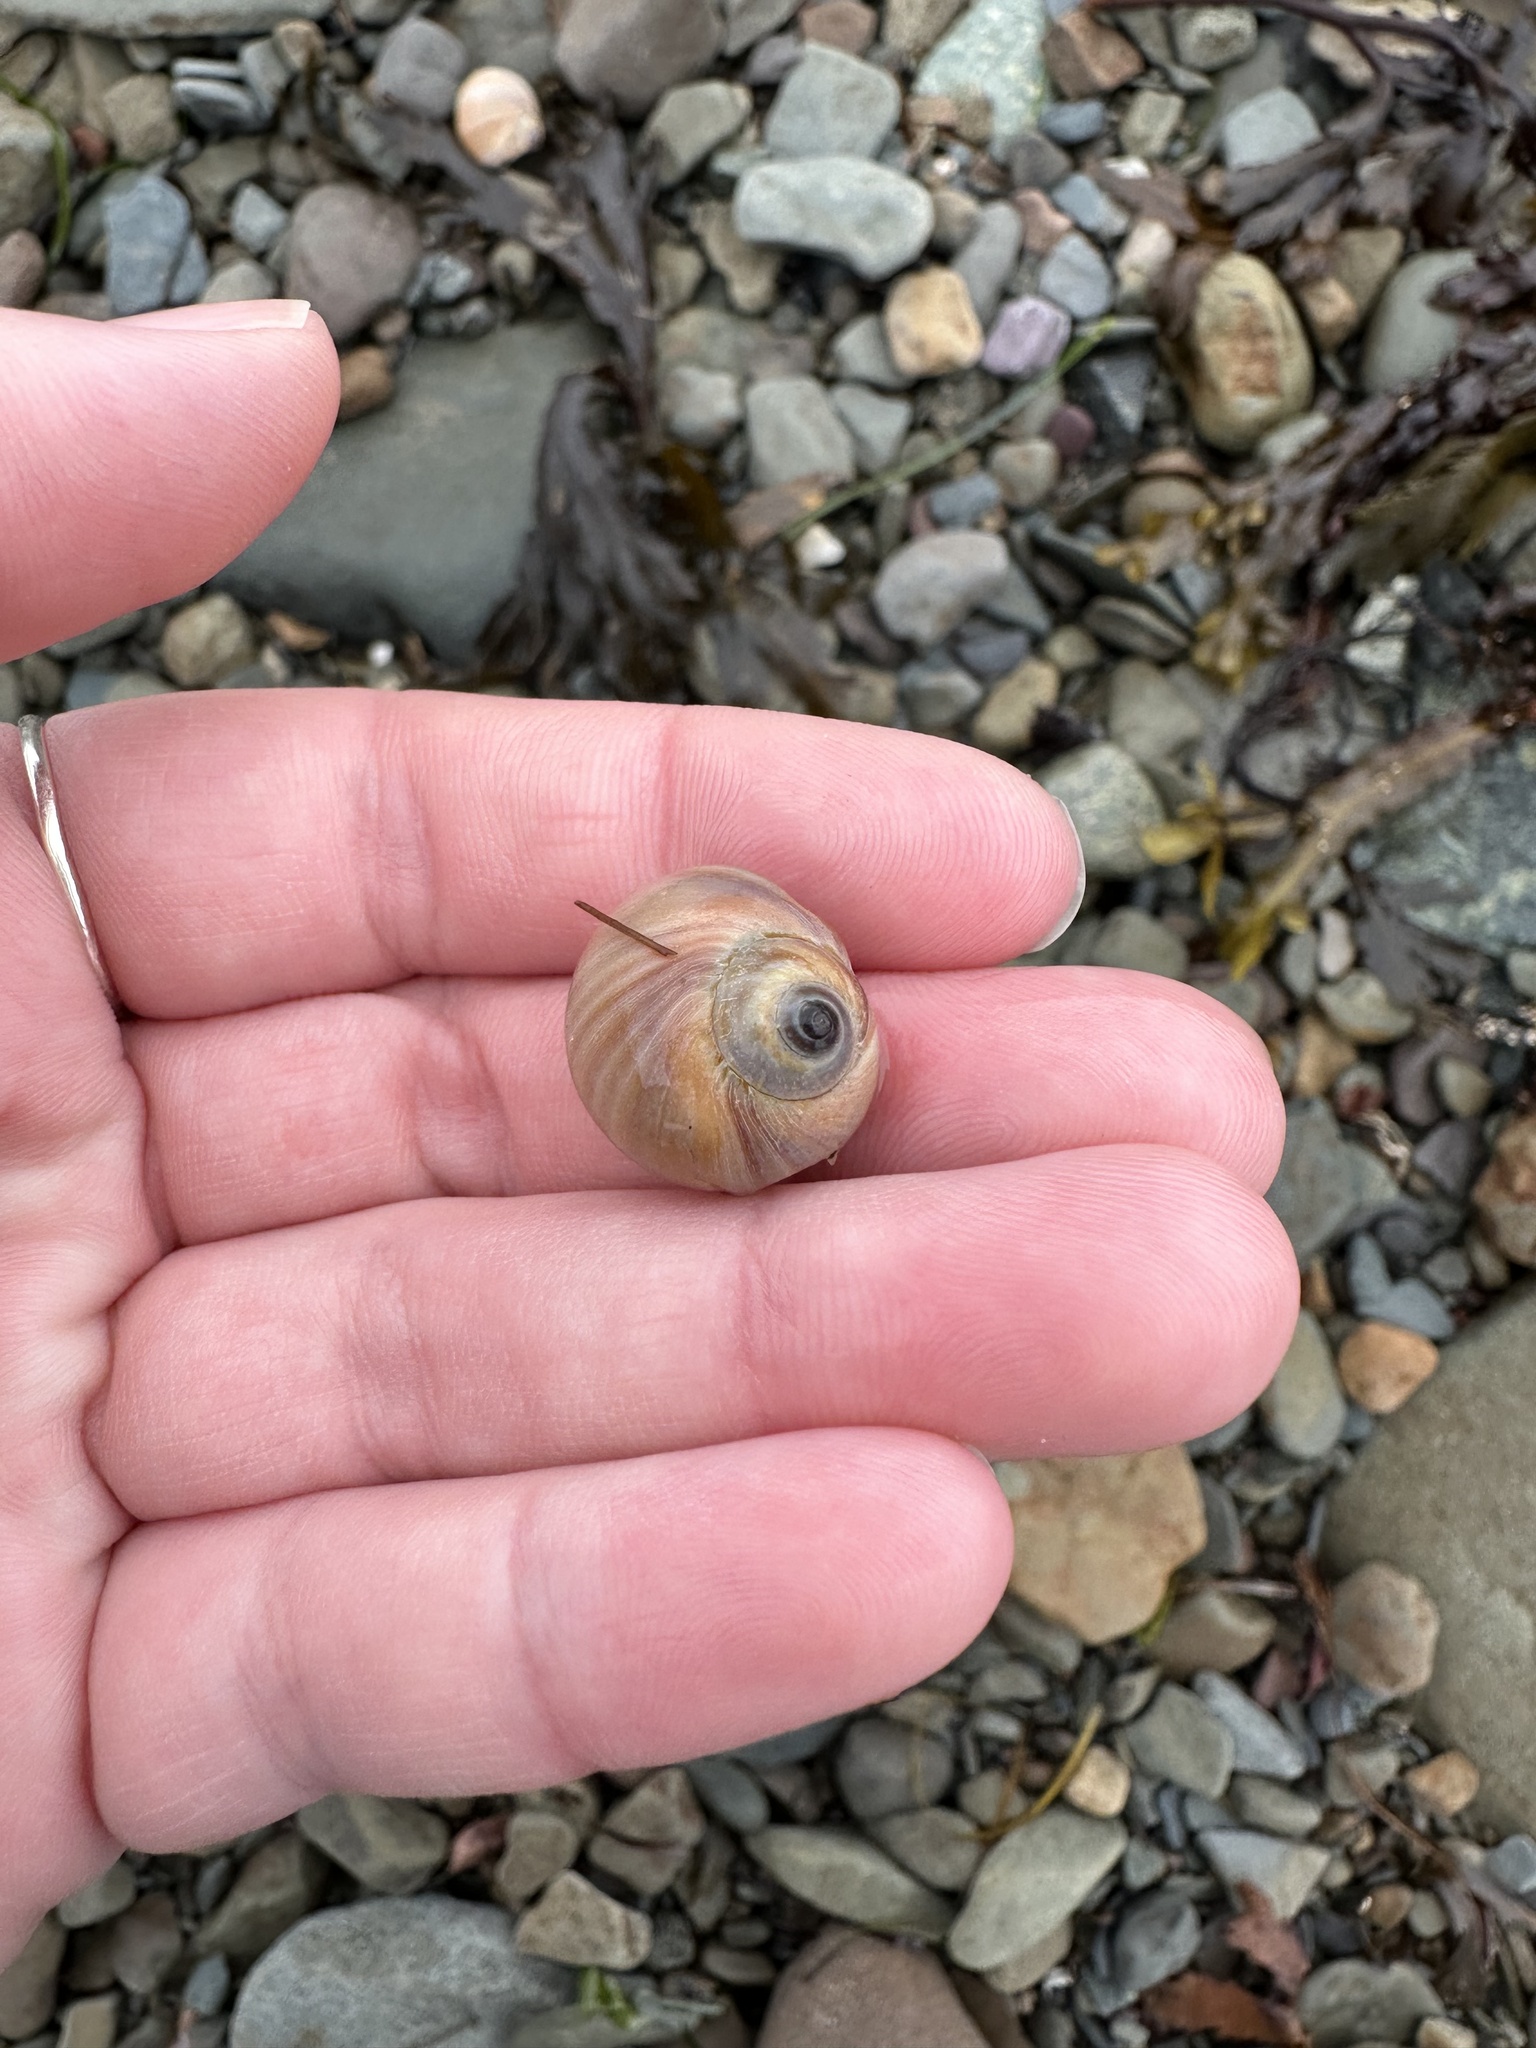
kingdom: Animalia
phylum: Mollusca
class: Gastropoda
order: Littorinimorpha
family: Naticidae
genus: Euspira
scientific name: Euspira heros
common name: Common northern moonsnail
